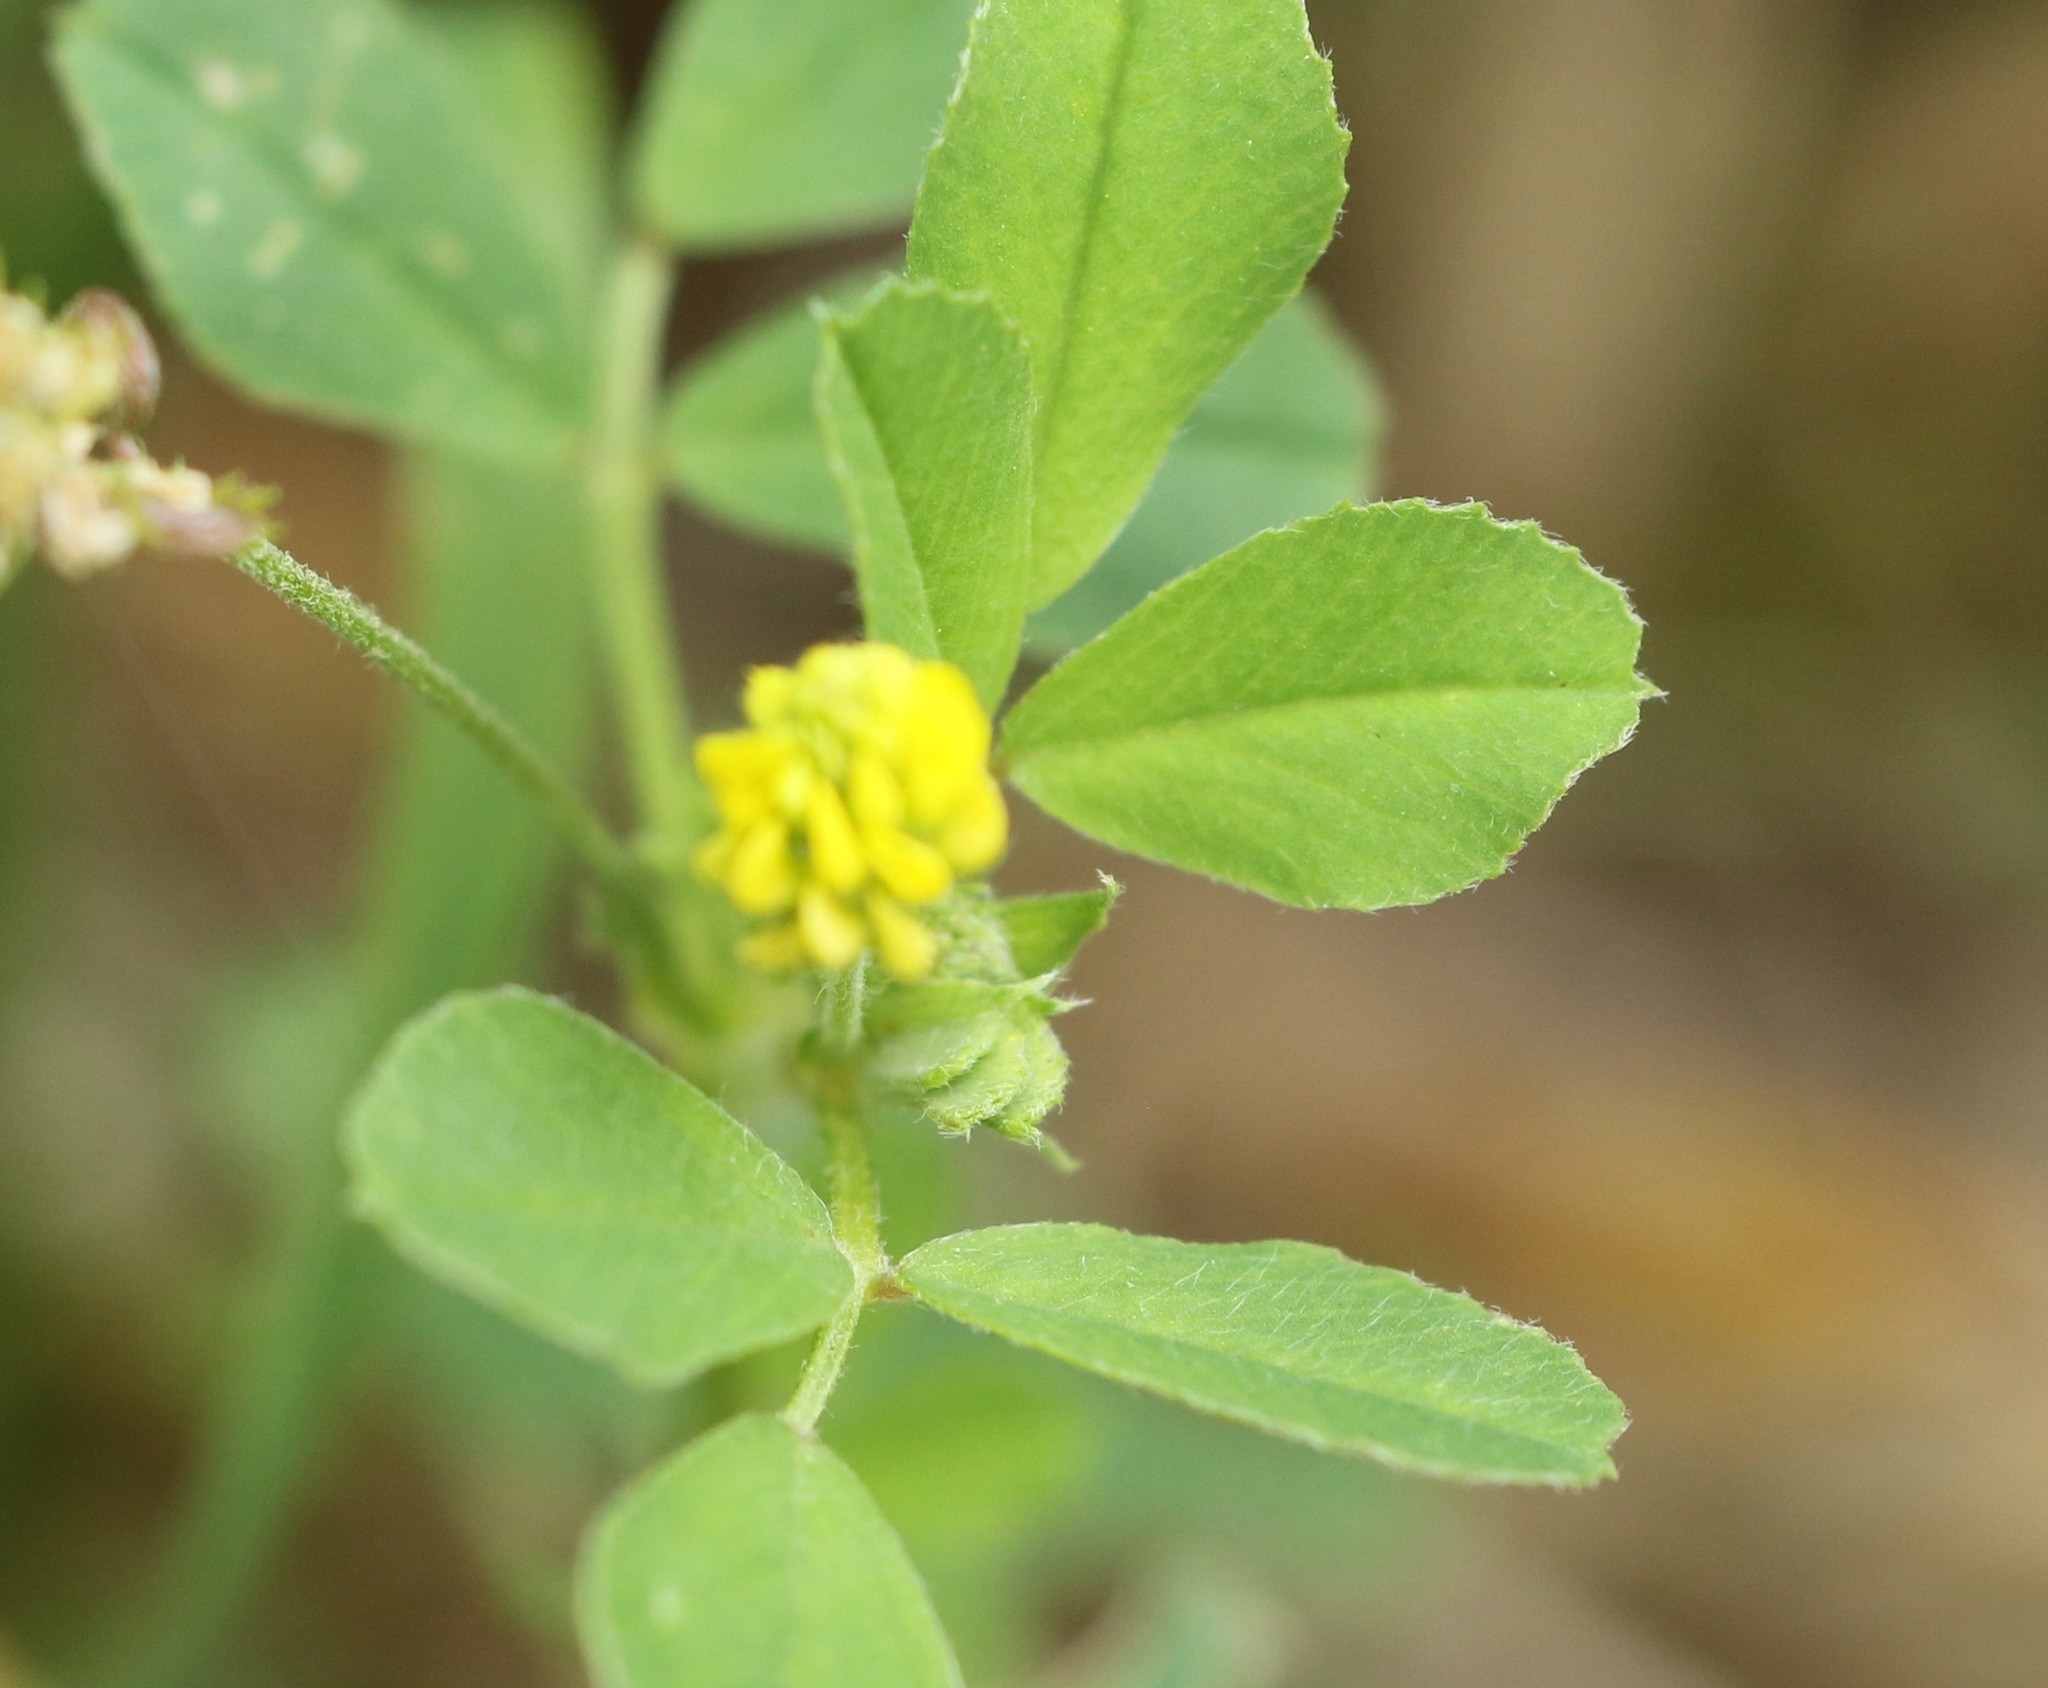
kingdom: Plantae
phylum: Tracheophyta
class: Magnoliopsida
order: Fabales
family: Fabaceae
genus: Medicago
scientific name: Medicago lupulina
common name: Black medick
